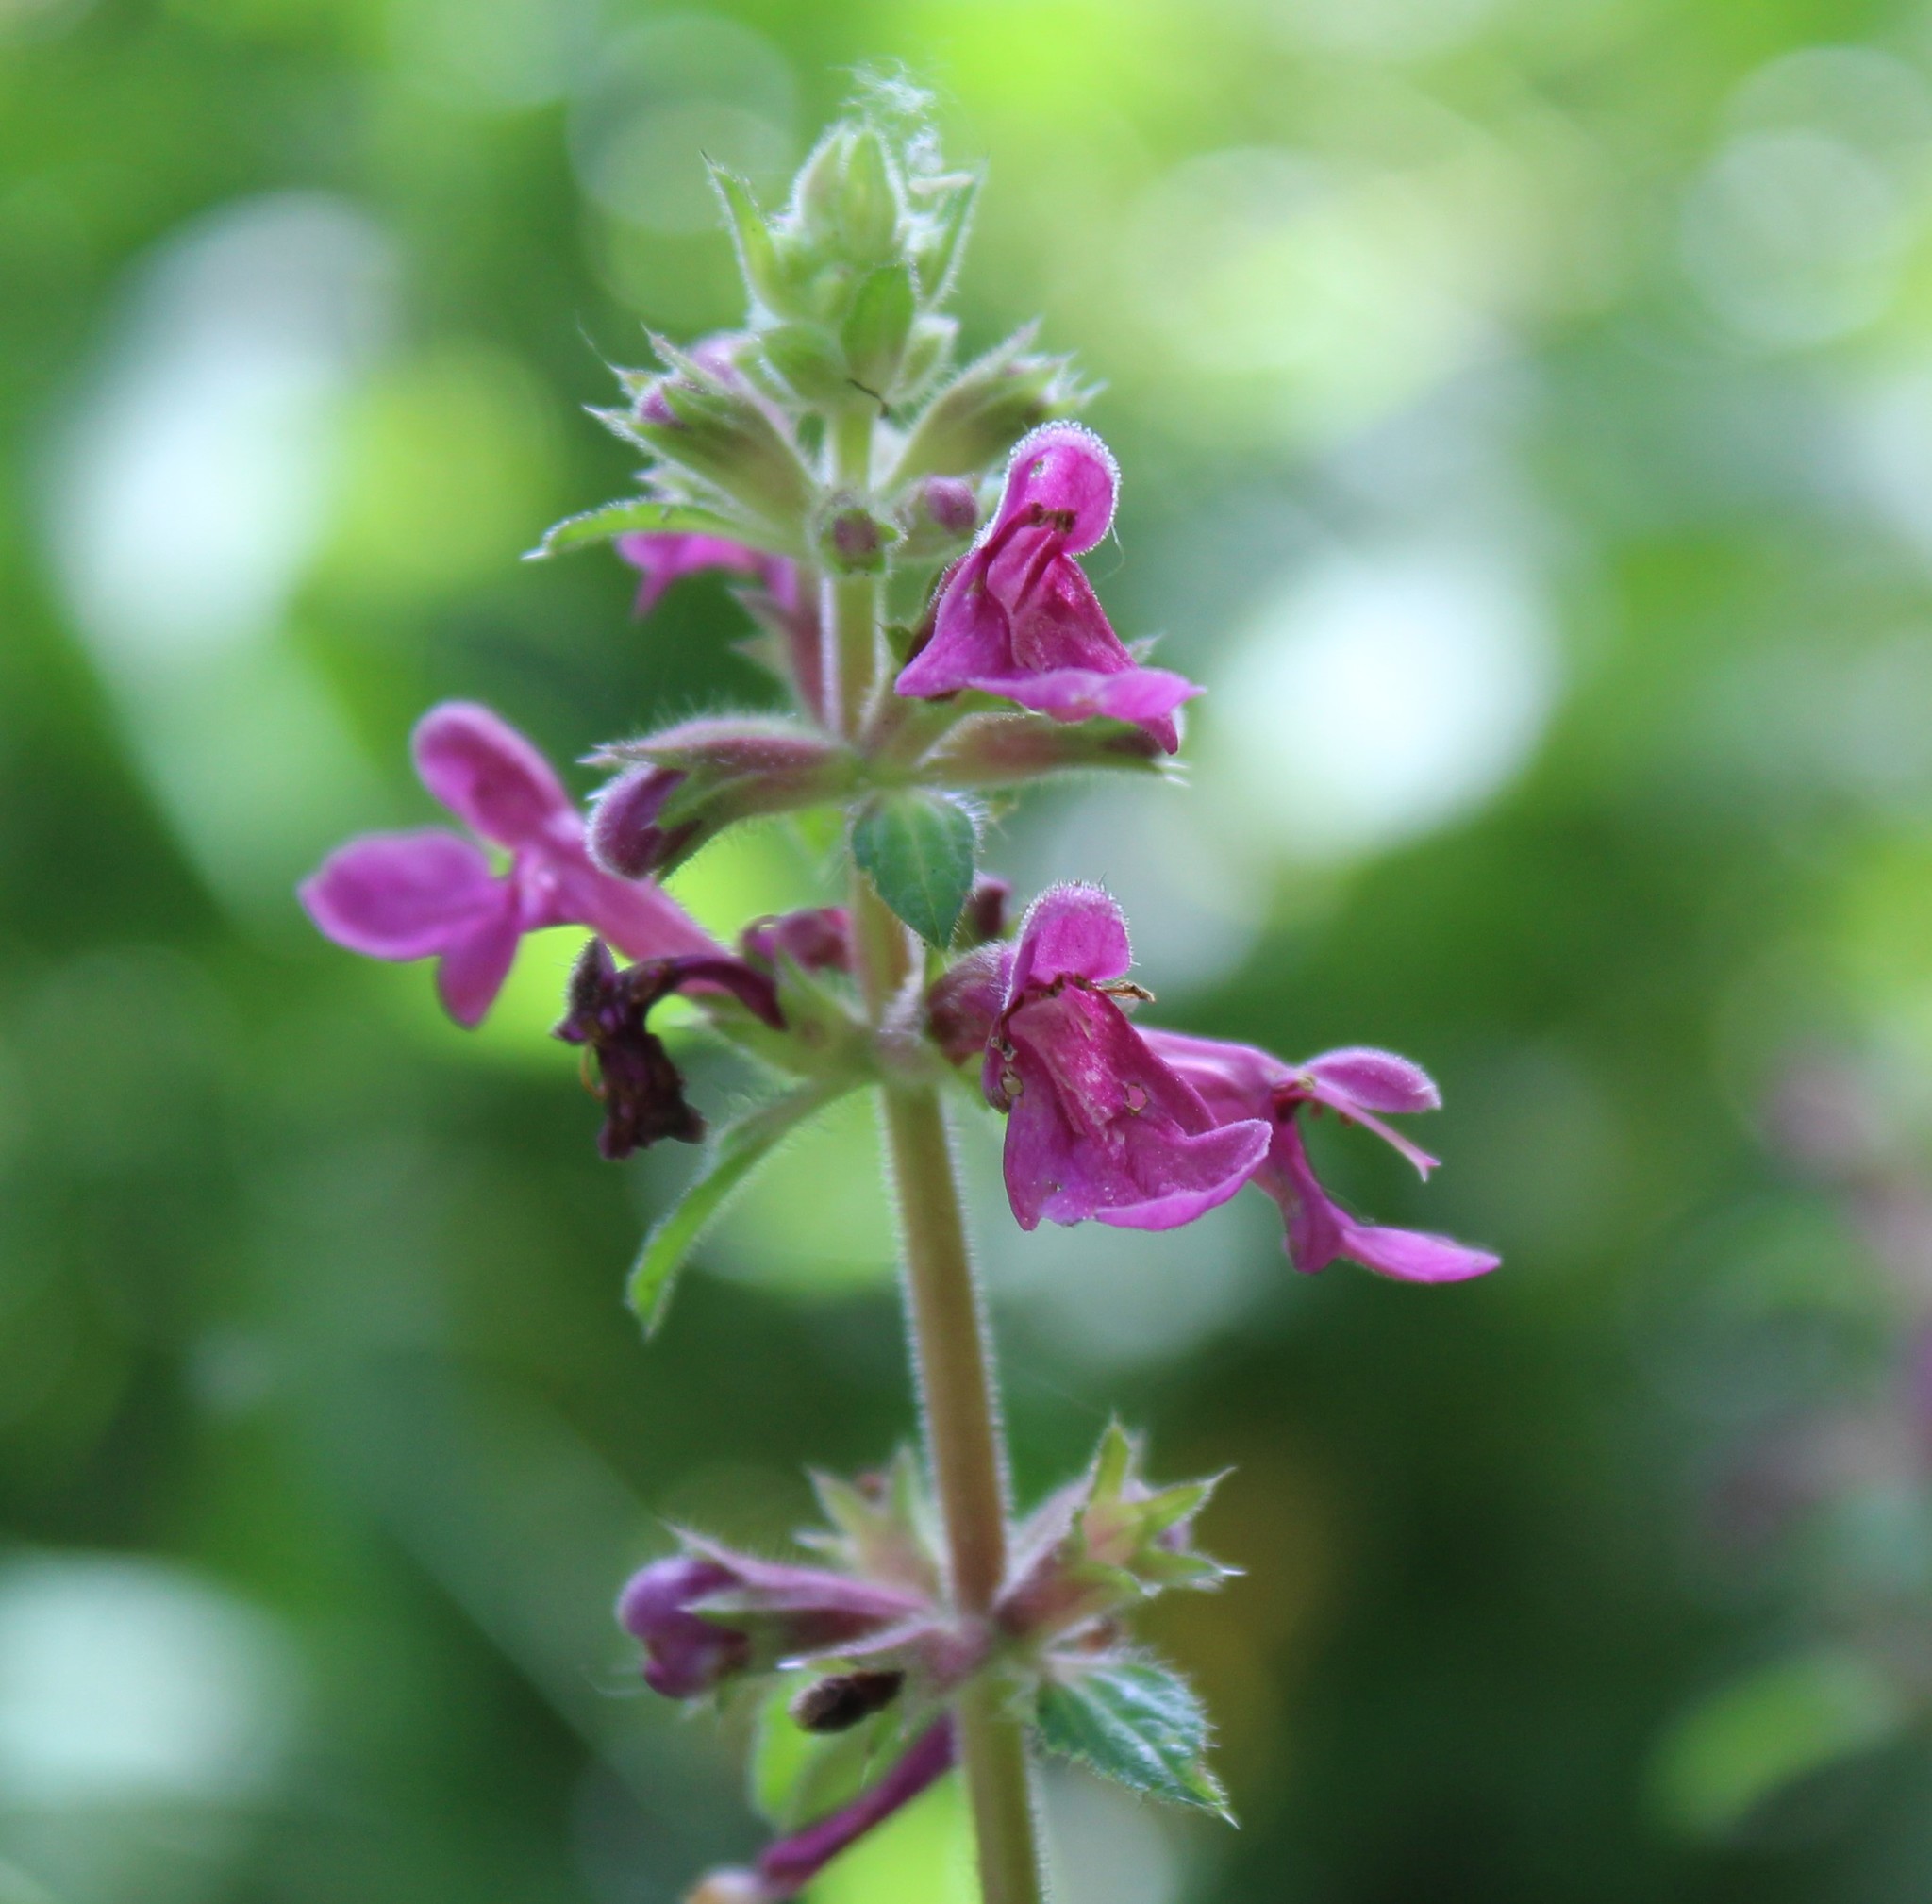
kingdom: Plantae
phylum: Tracheophyta
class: Magnoliopsida
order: Lamiales
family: Lamiaceae
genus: Stachys
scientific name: Stachys chamissonis
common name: Coastal hedge-nettle
